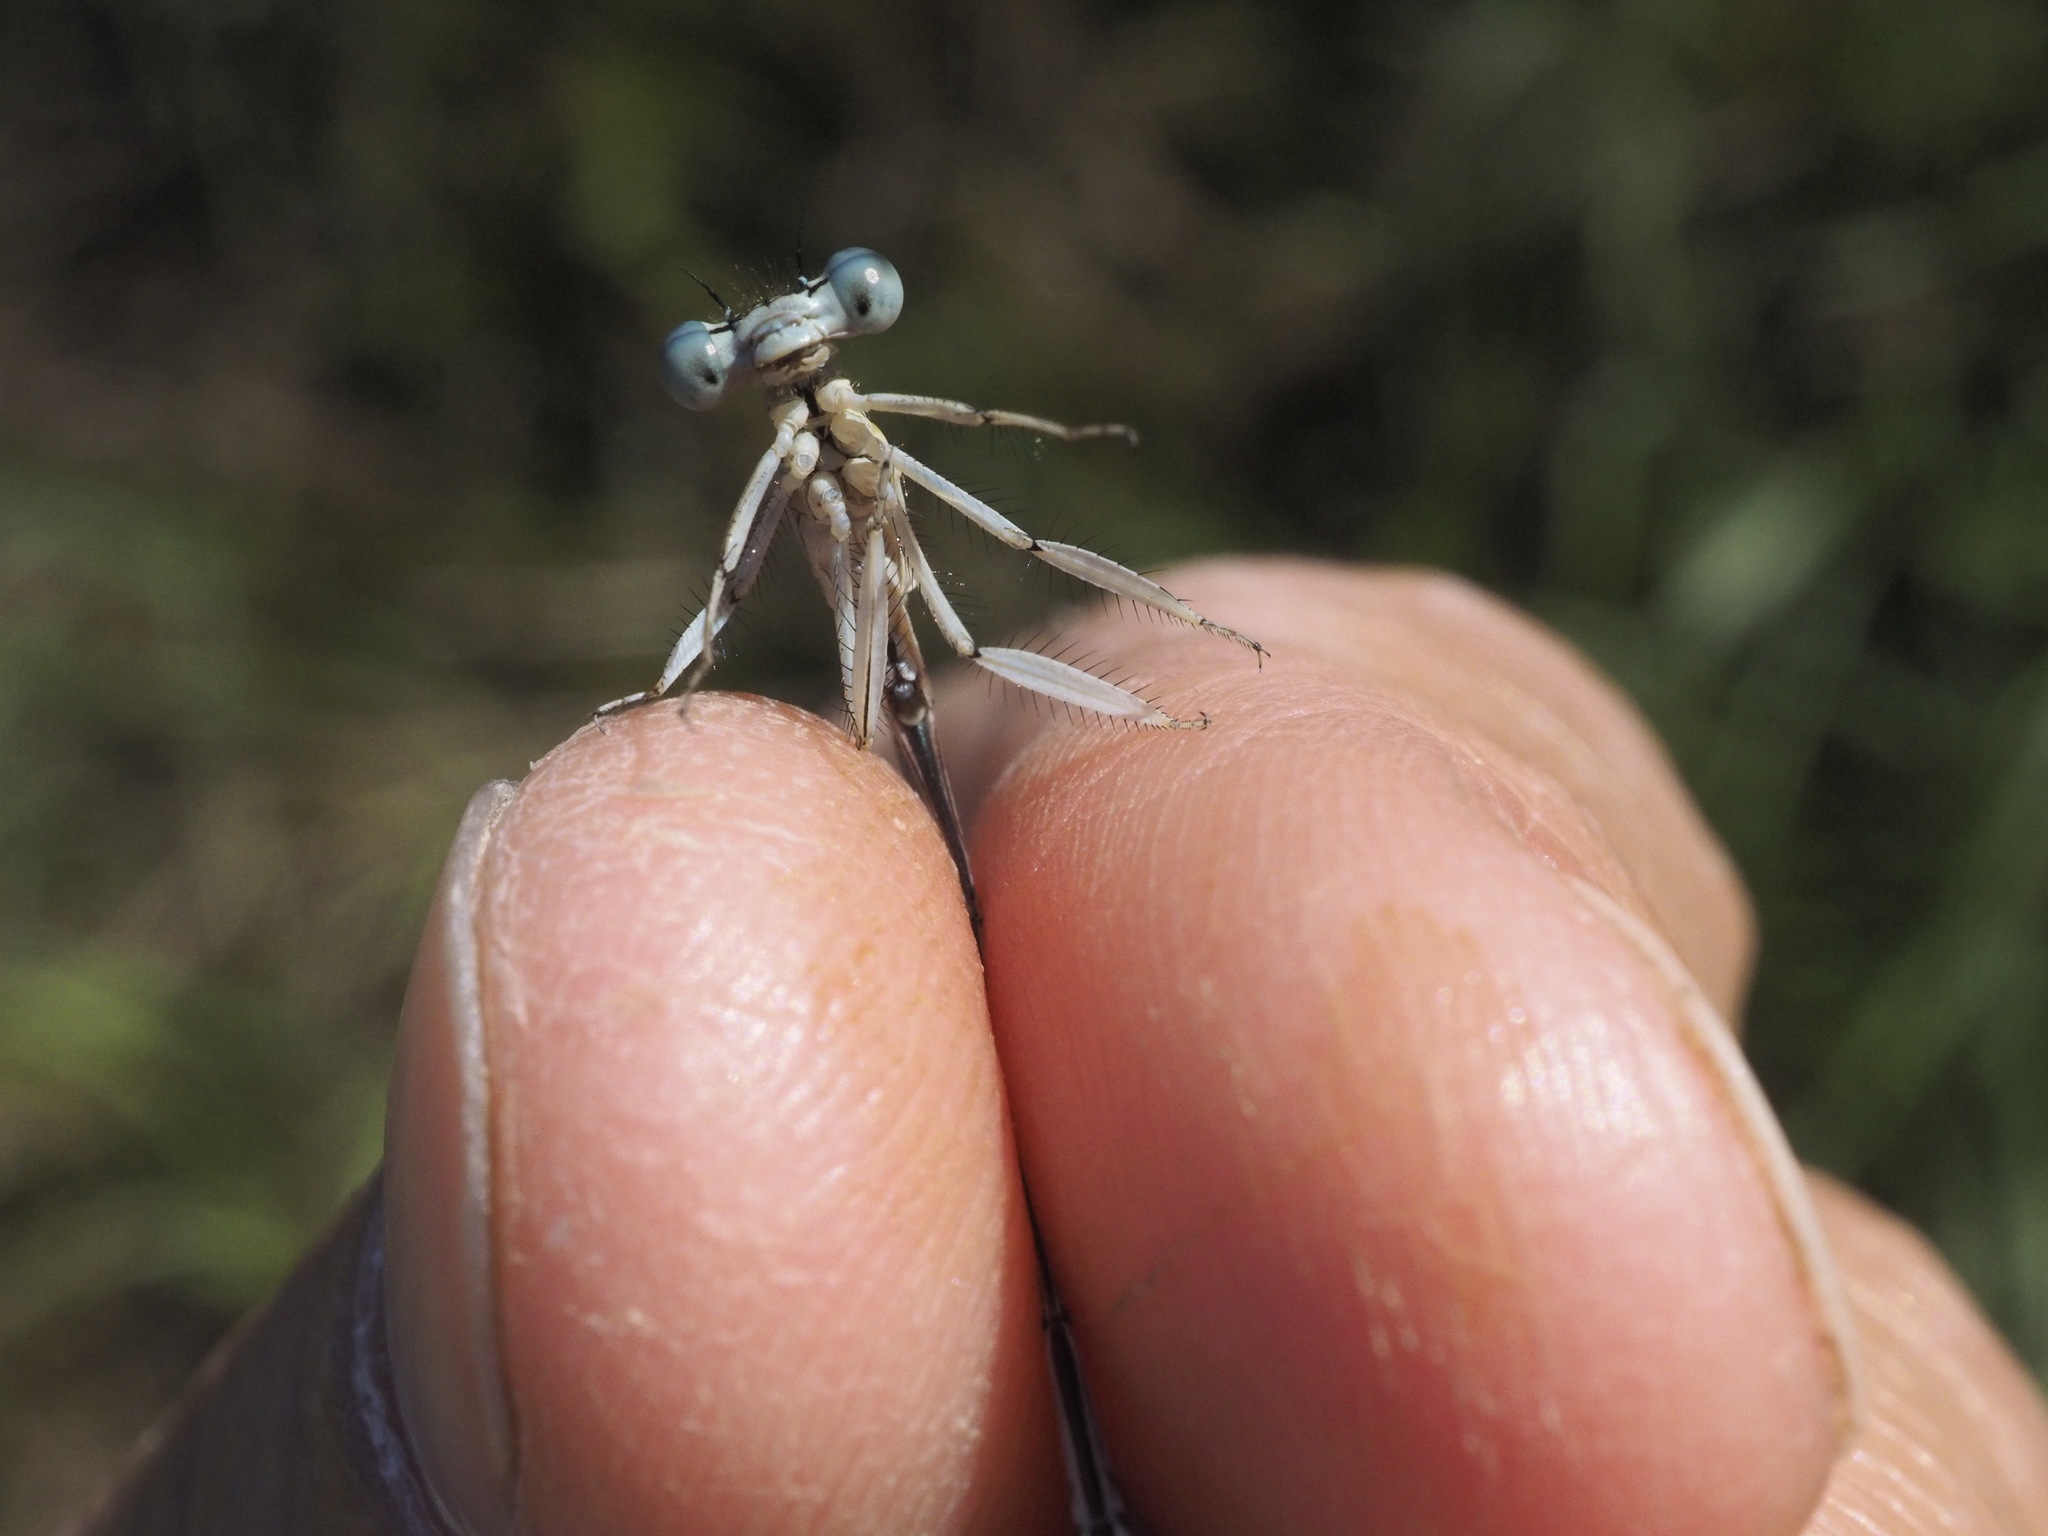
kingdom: Animalia
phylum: Arthropoda
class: Insecta
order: Odonata
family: Platycnemididae
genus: Platycnemis
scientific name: Platycnemis pennipes
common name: White-legged damselfly
